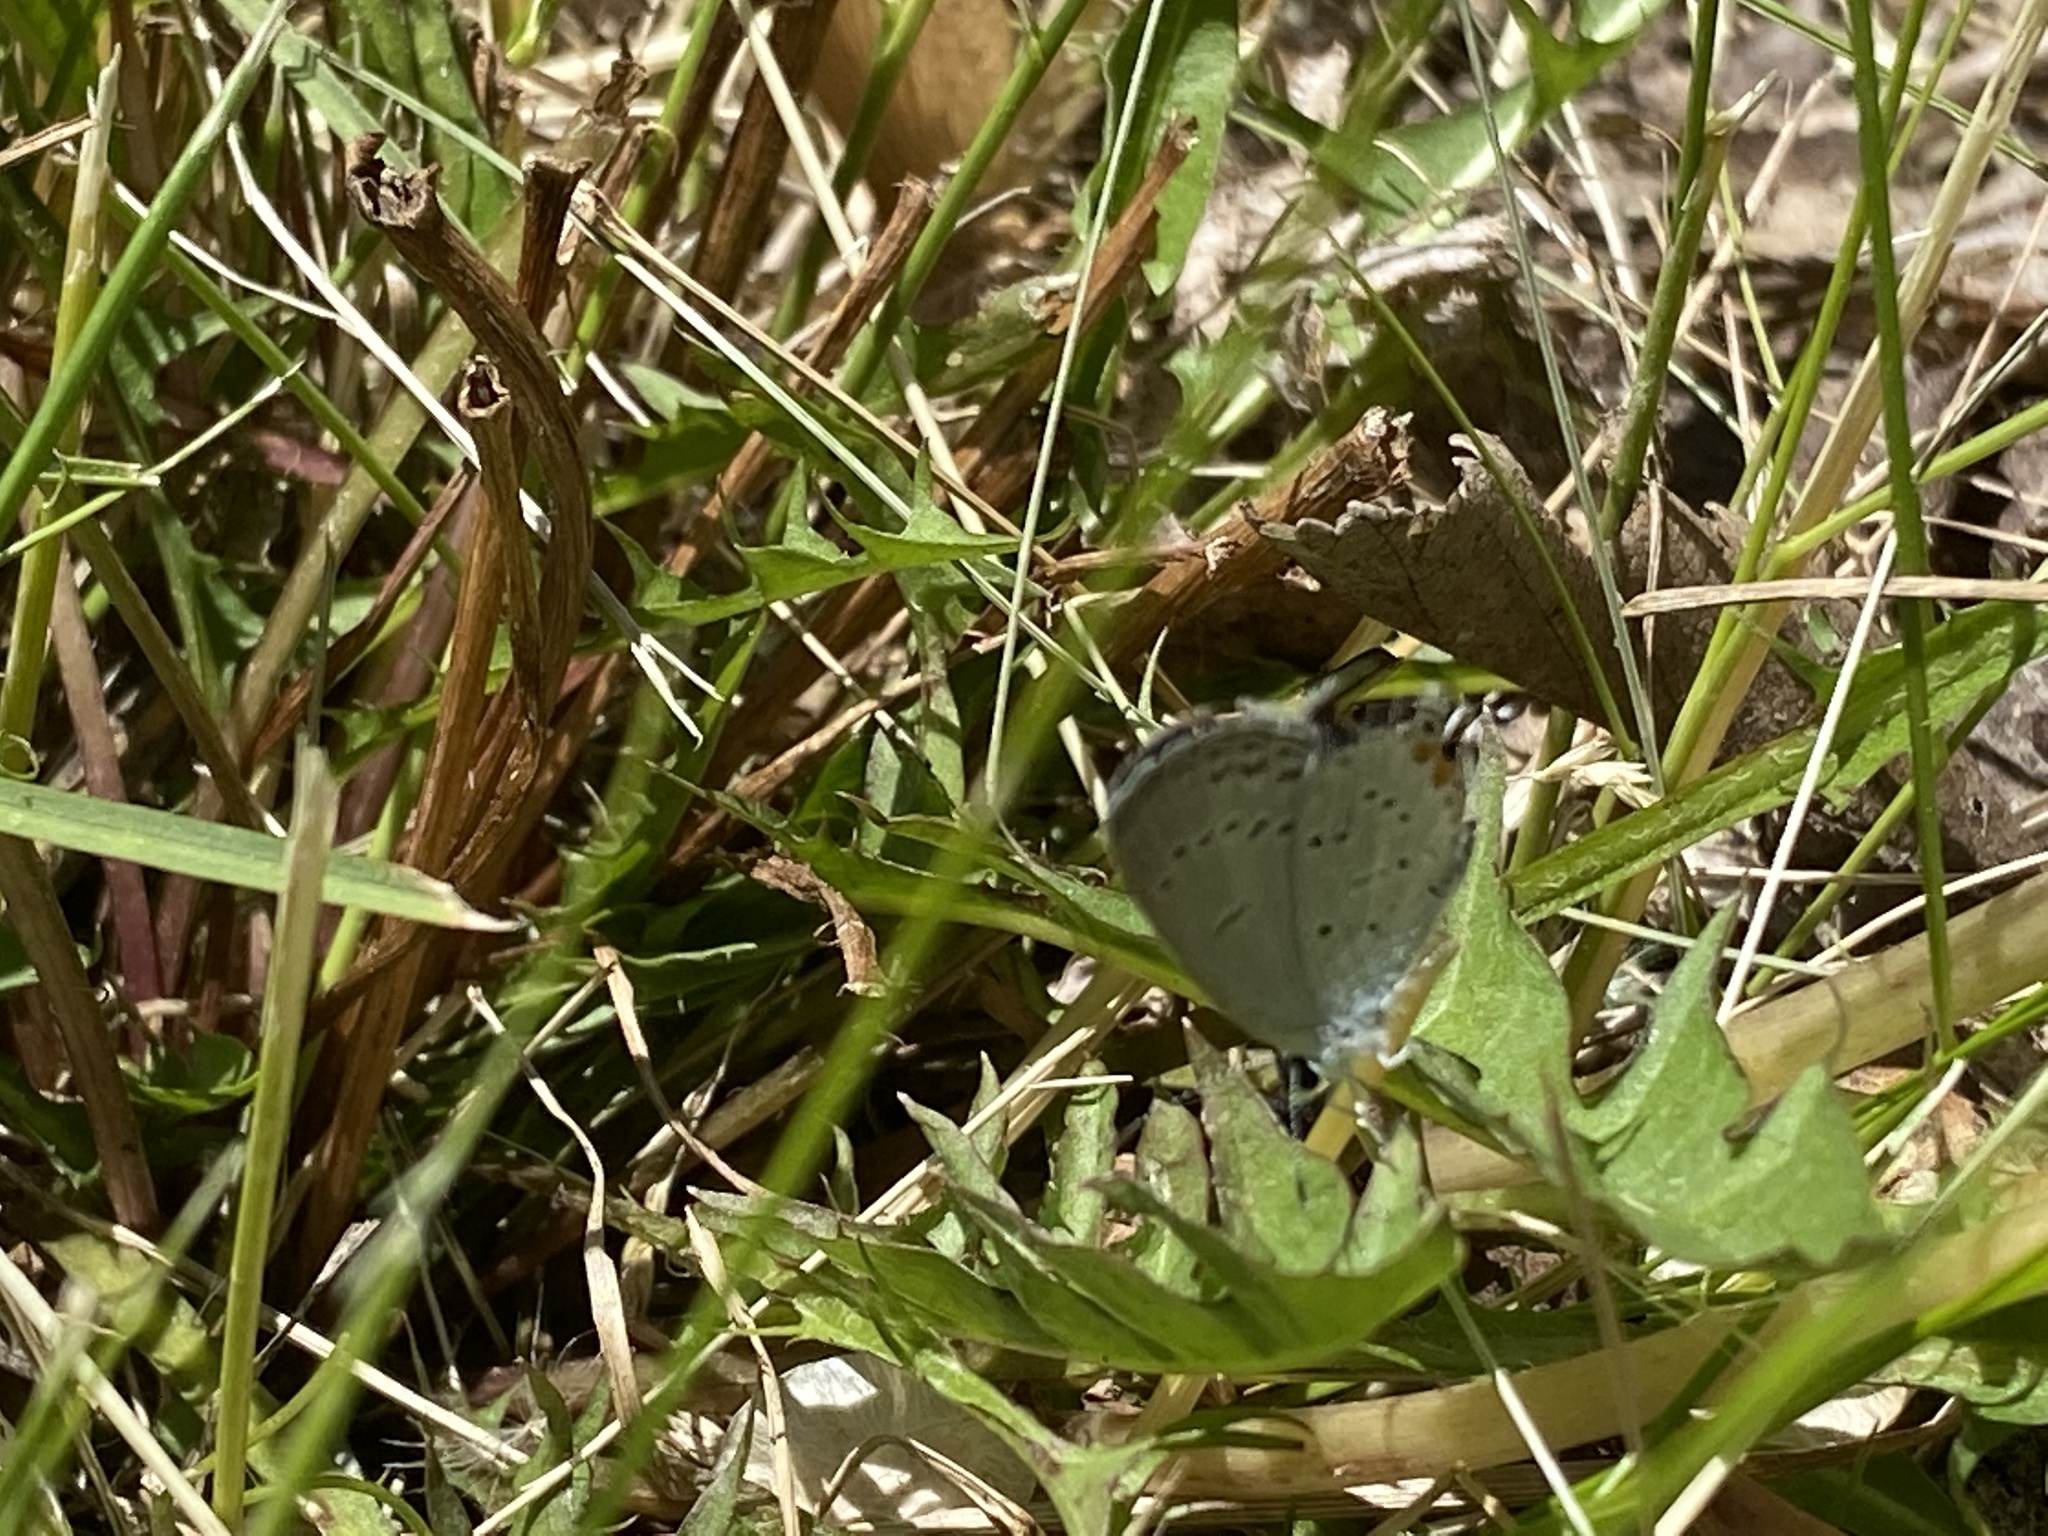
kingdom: Animalia
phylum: Arthropoda
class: Insecta
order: Lepidoptera
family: Lycaenidae
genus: Elkalyce
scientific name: Elkalyce comyntas
